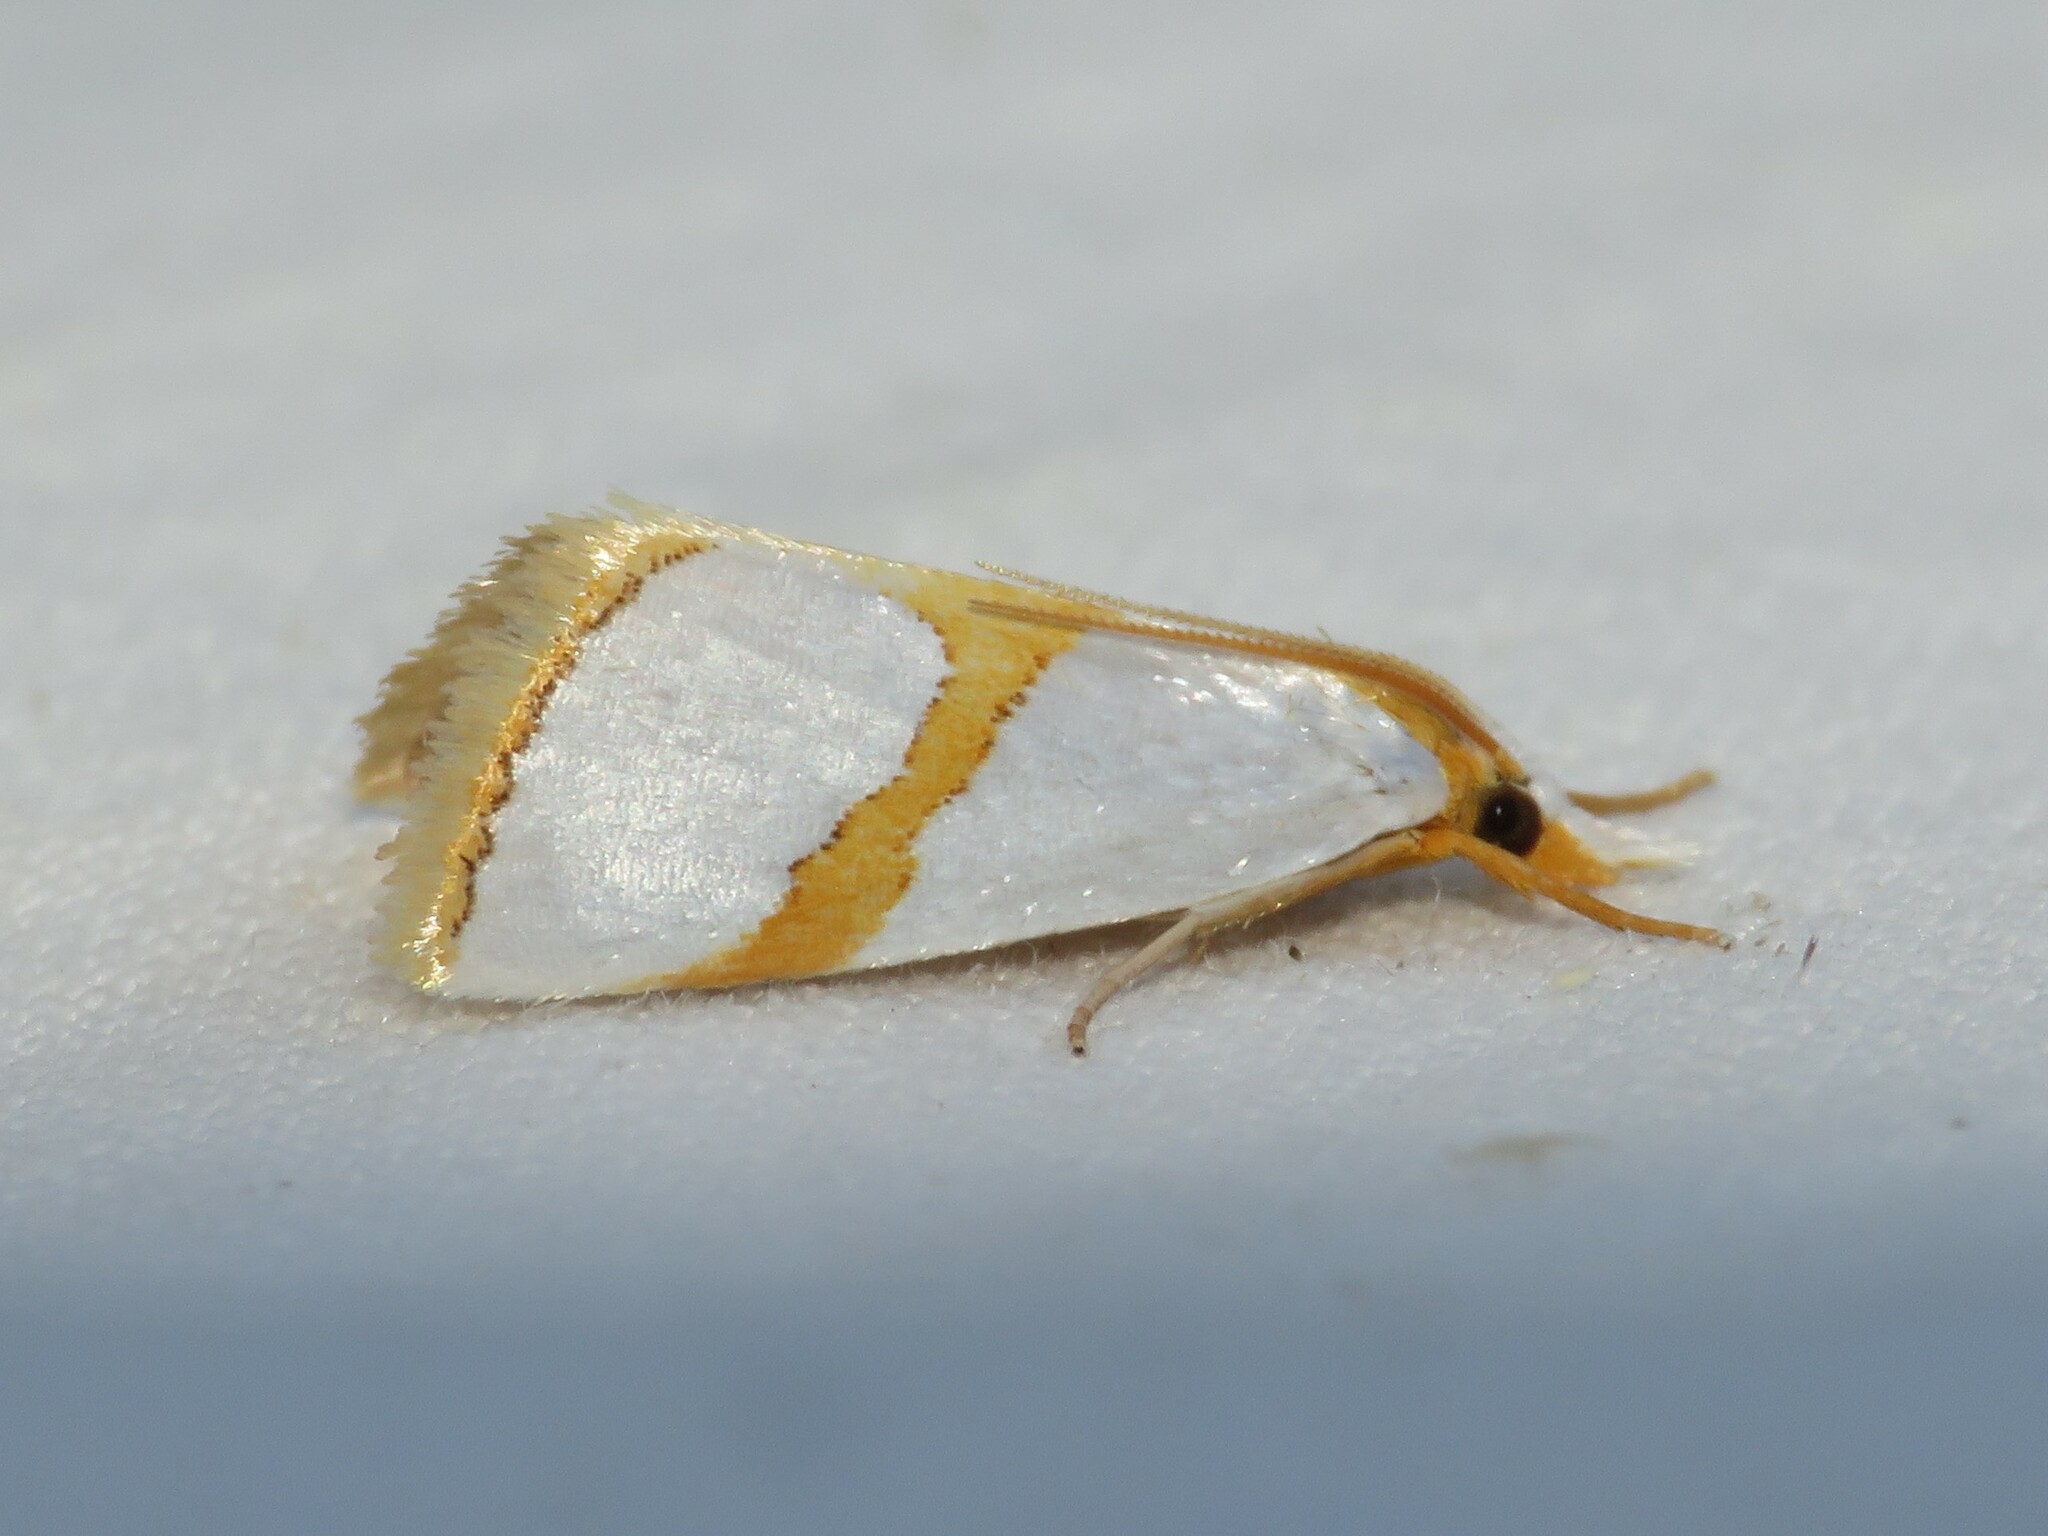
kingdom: Animalia
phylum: Arthropoda
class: Insecta
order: Lepidoptera
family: Crambidae
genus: Argyria
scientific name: Argyria auratella
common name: Curve-lined argyria moth
